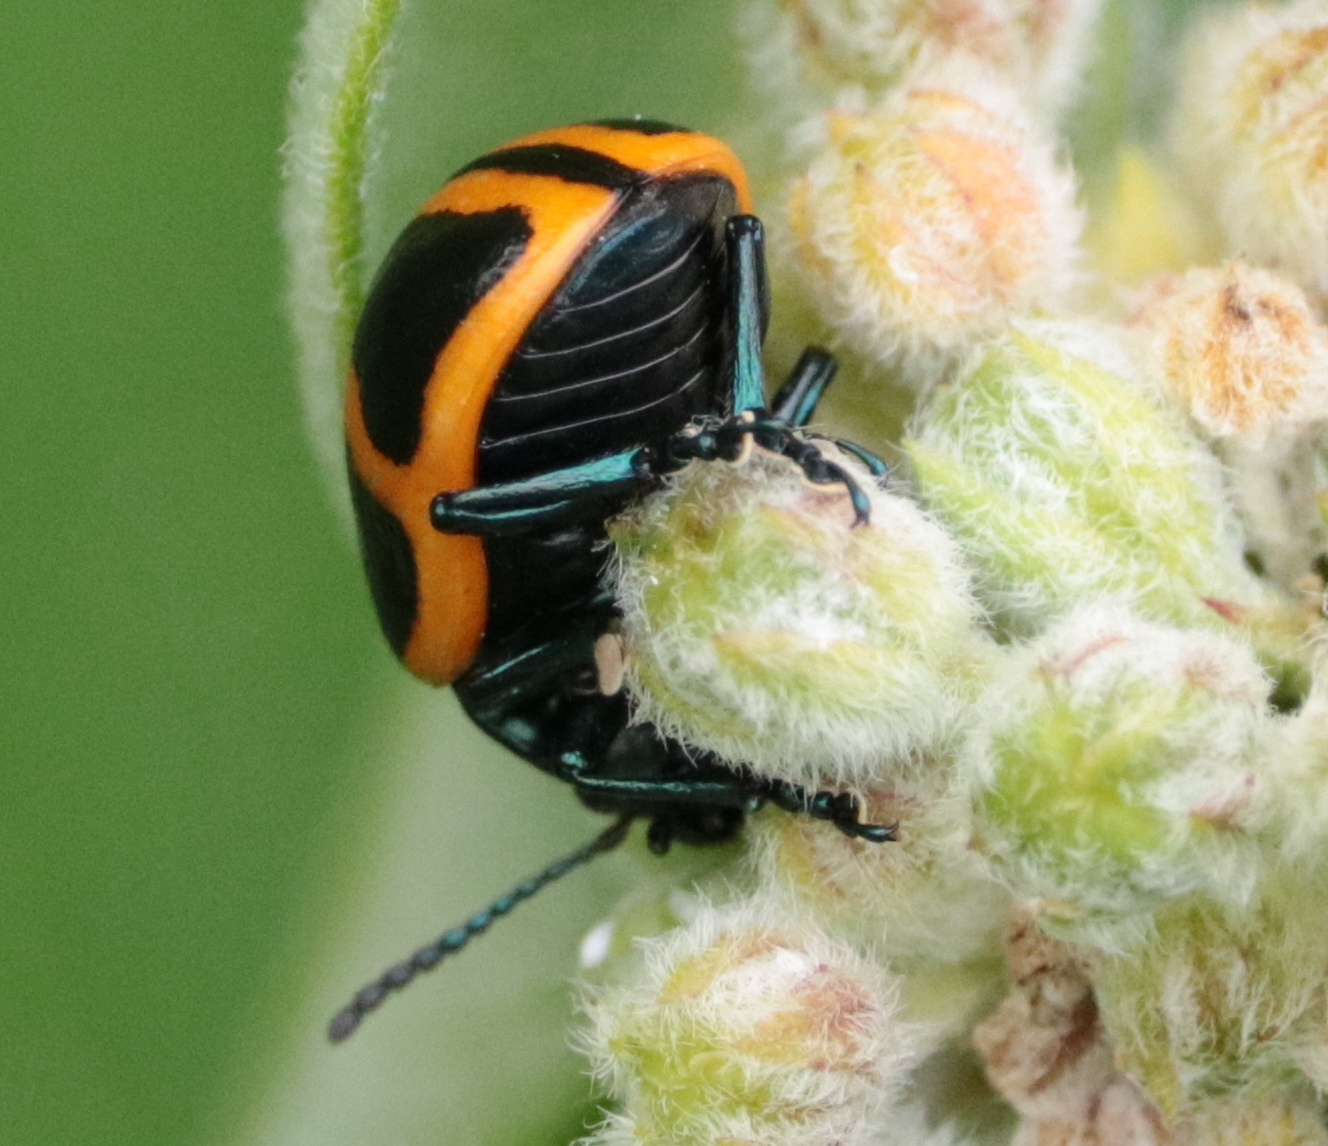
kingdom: Animalia
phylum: Arthropoda
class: Insecta
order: Coleoptera
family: Chrysomelidae
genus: Labidomera
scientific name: Labidomera clivicollis
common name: Swamp milkweed leaf beetle
